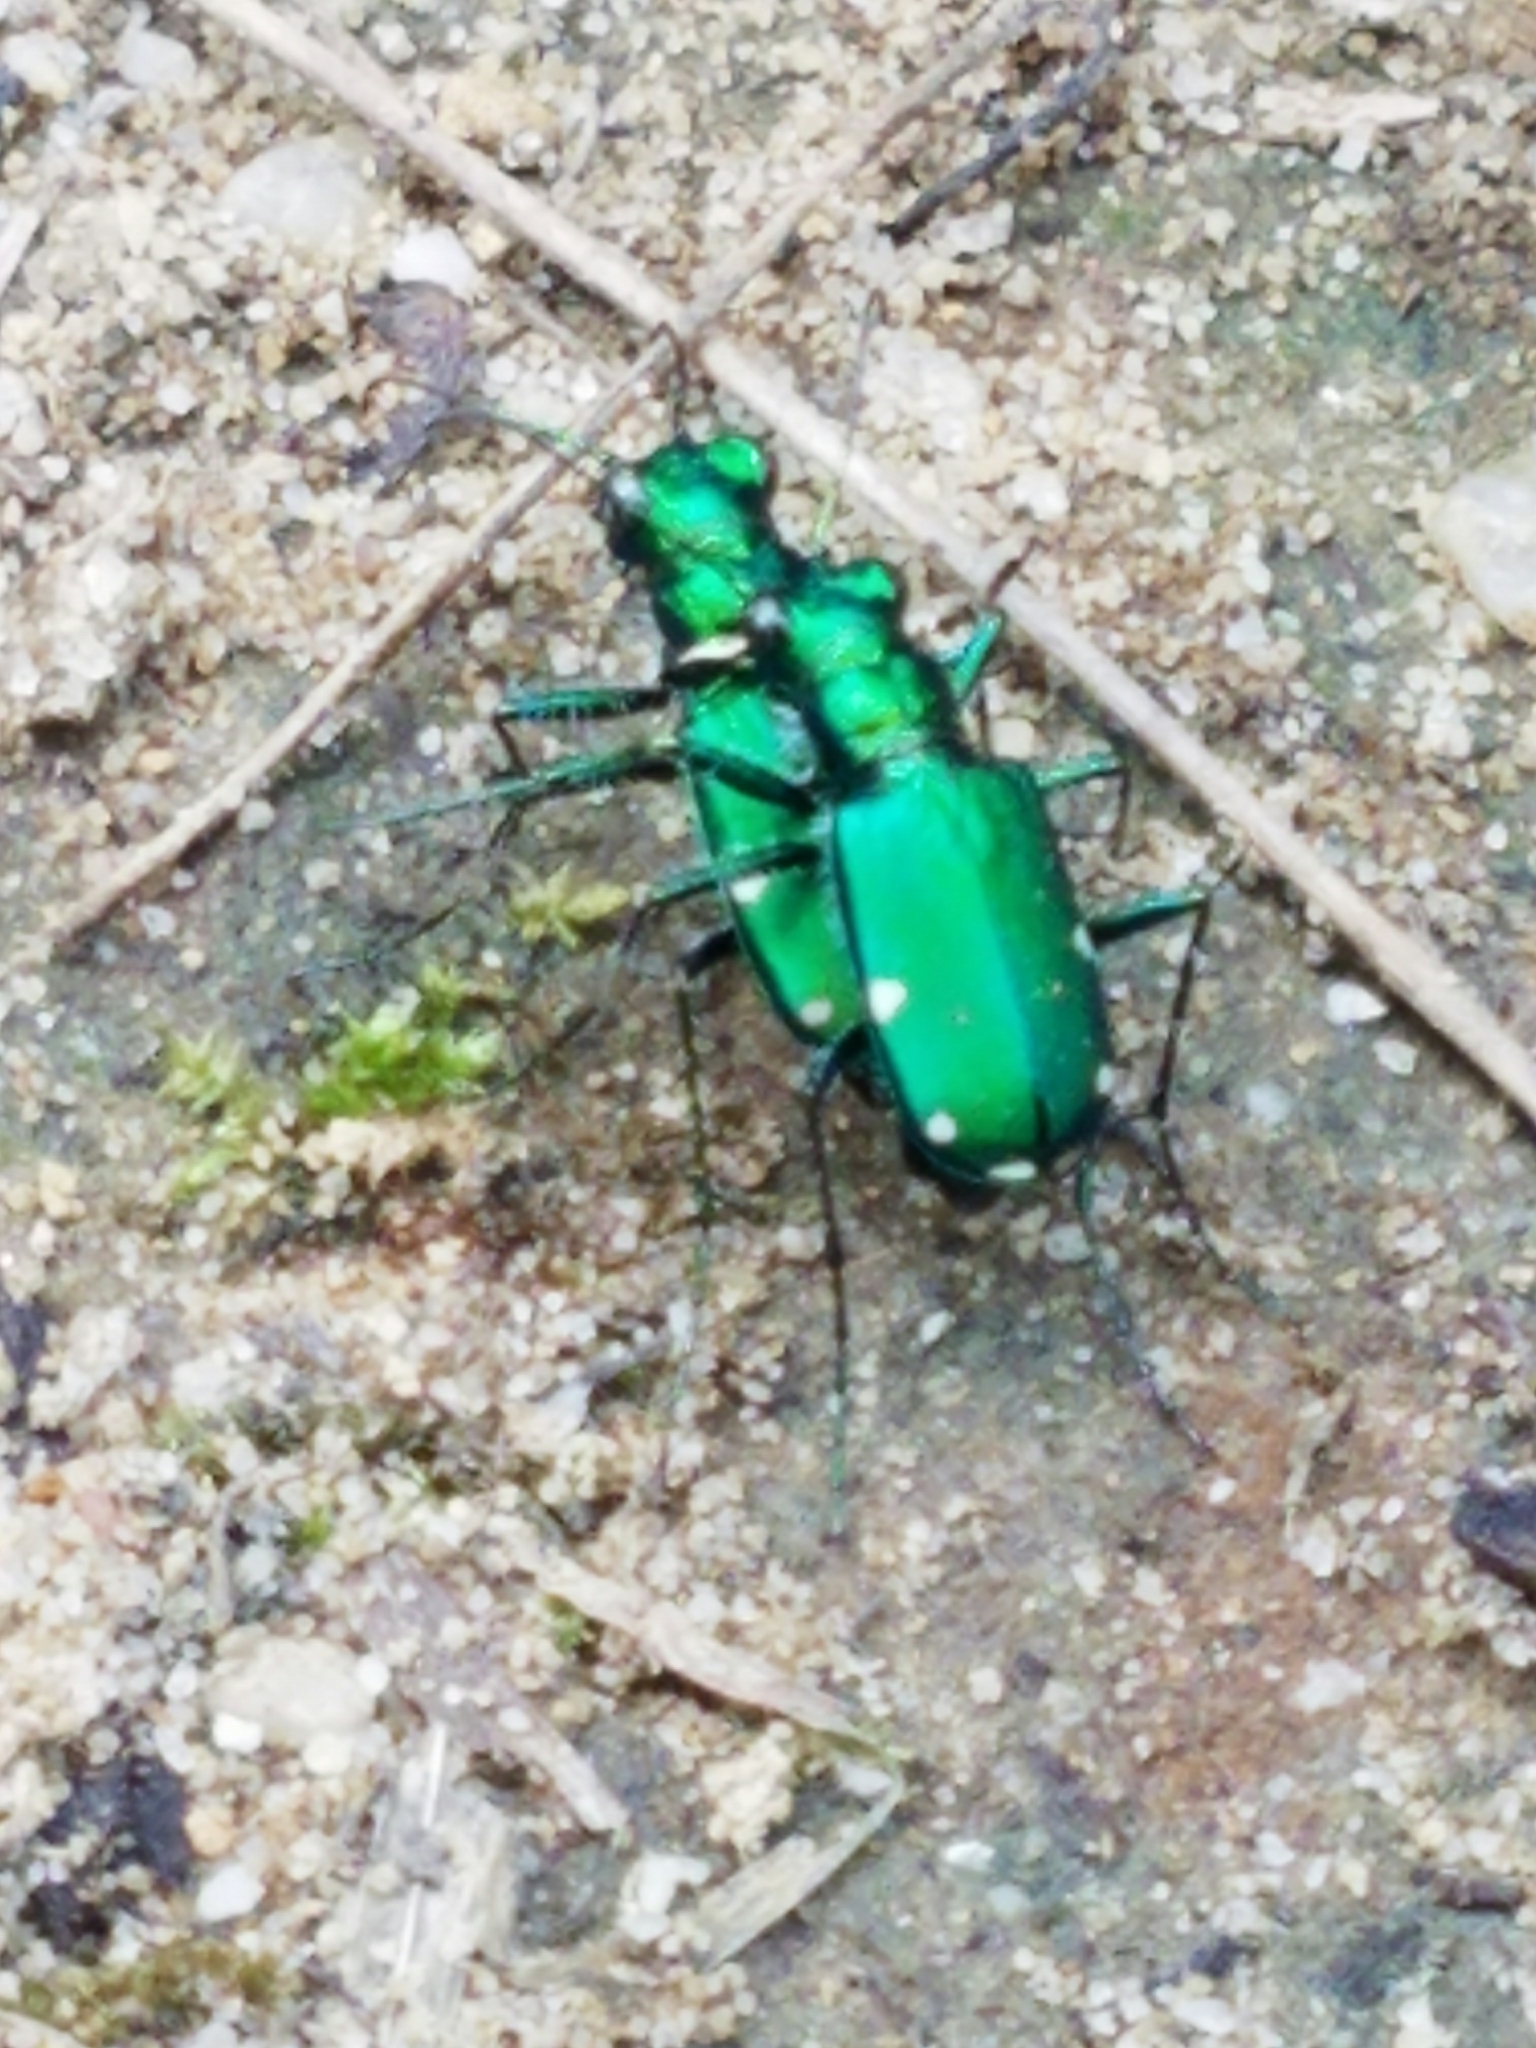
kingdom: Animalia
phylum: Arthropoda
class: Insecta
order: Coleoptera
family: Carabidae
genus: Cicindela
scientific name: Cicindela sexguttata
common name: Six-spotted tiger beetle
